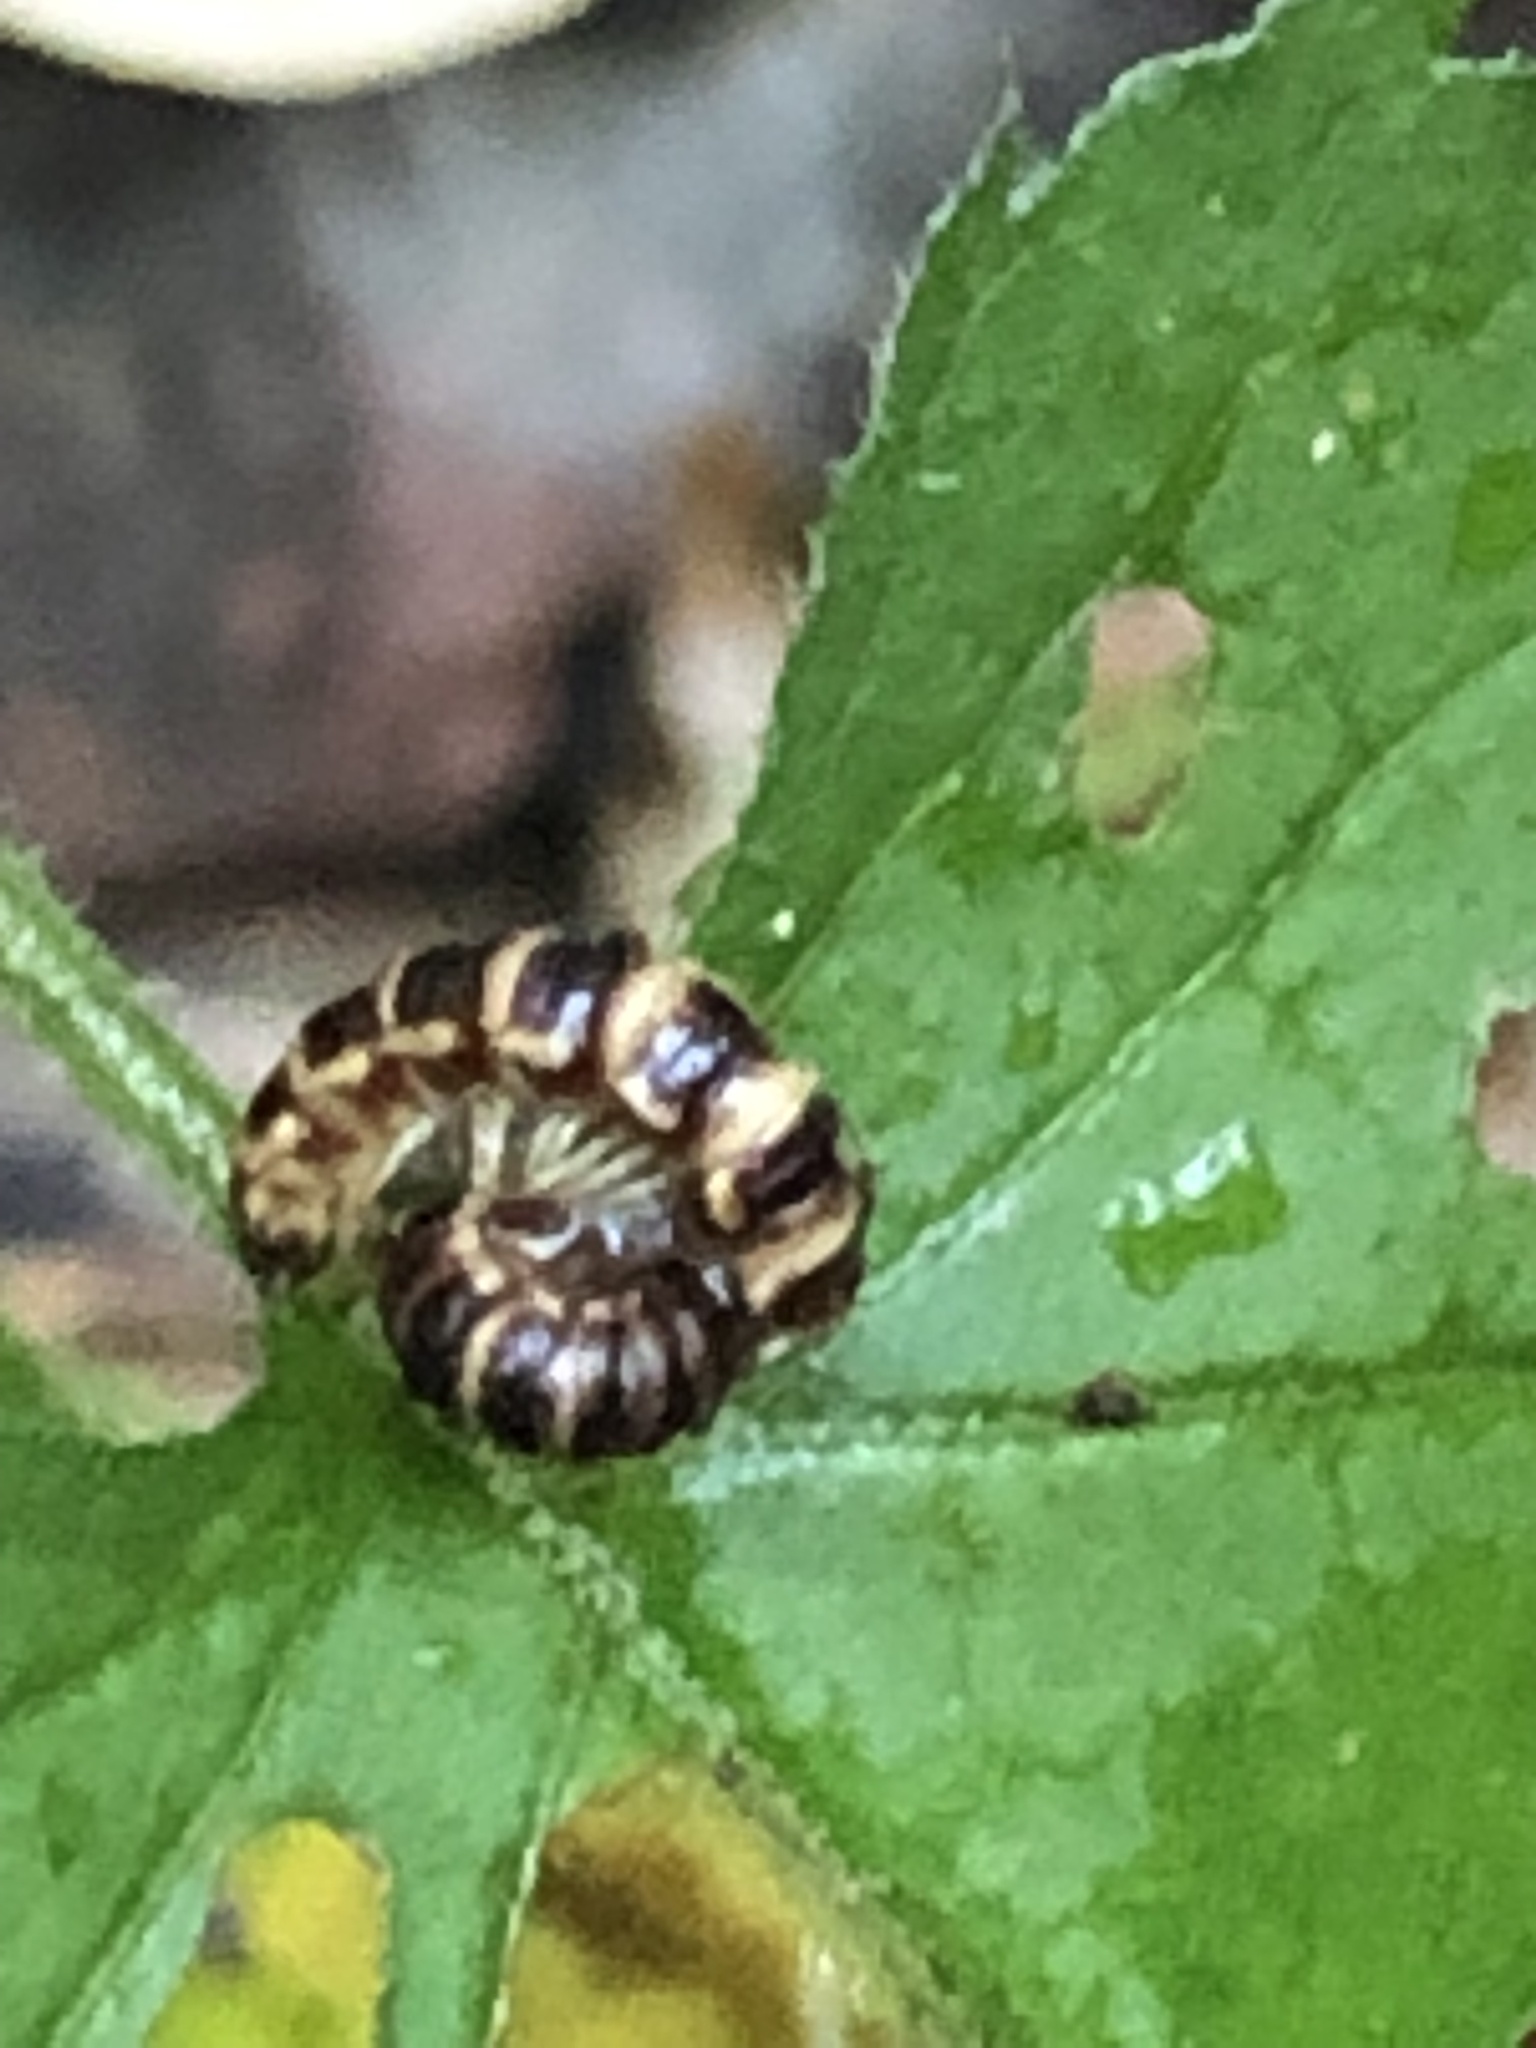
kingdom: Fungi
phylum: Entomophthoromycota
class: Entomophthoromycetes
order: Entomophthorales
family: Entomophthoraceae
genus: Arthrophaga
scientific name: Arthrophaga myriapodina
